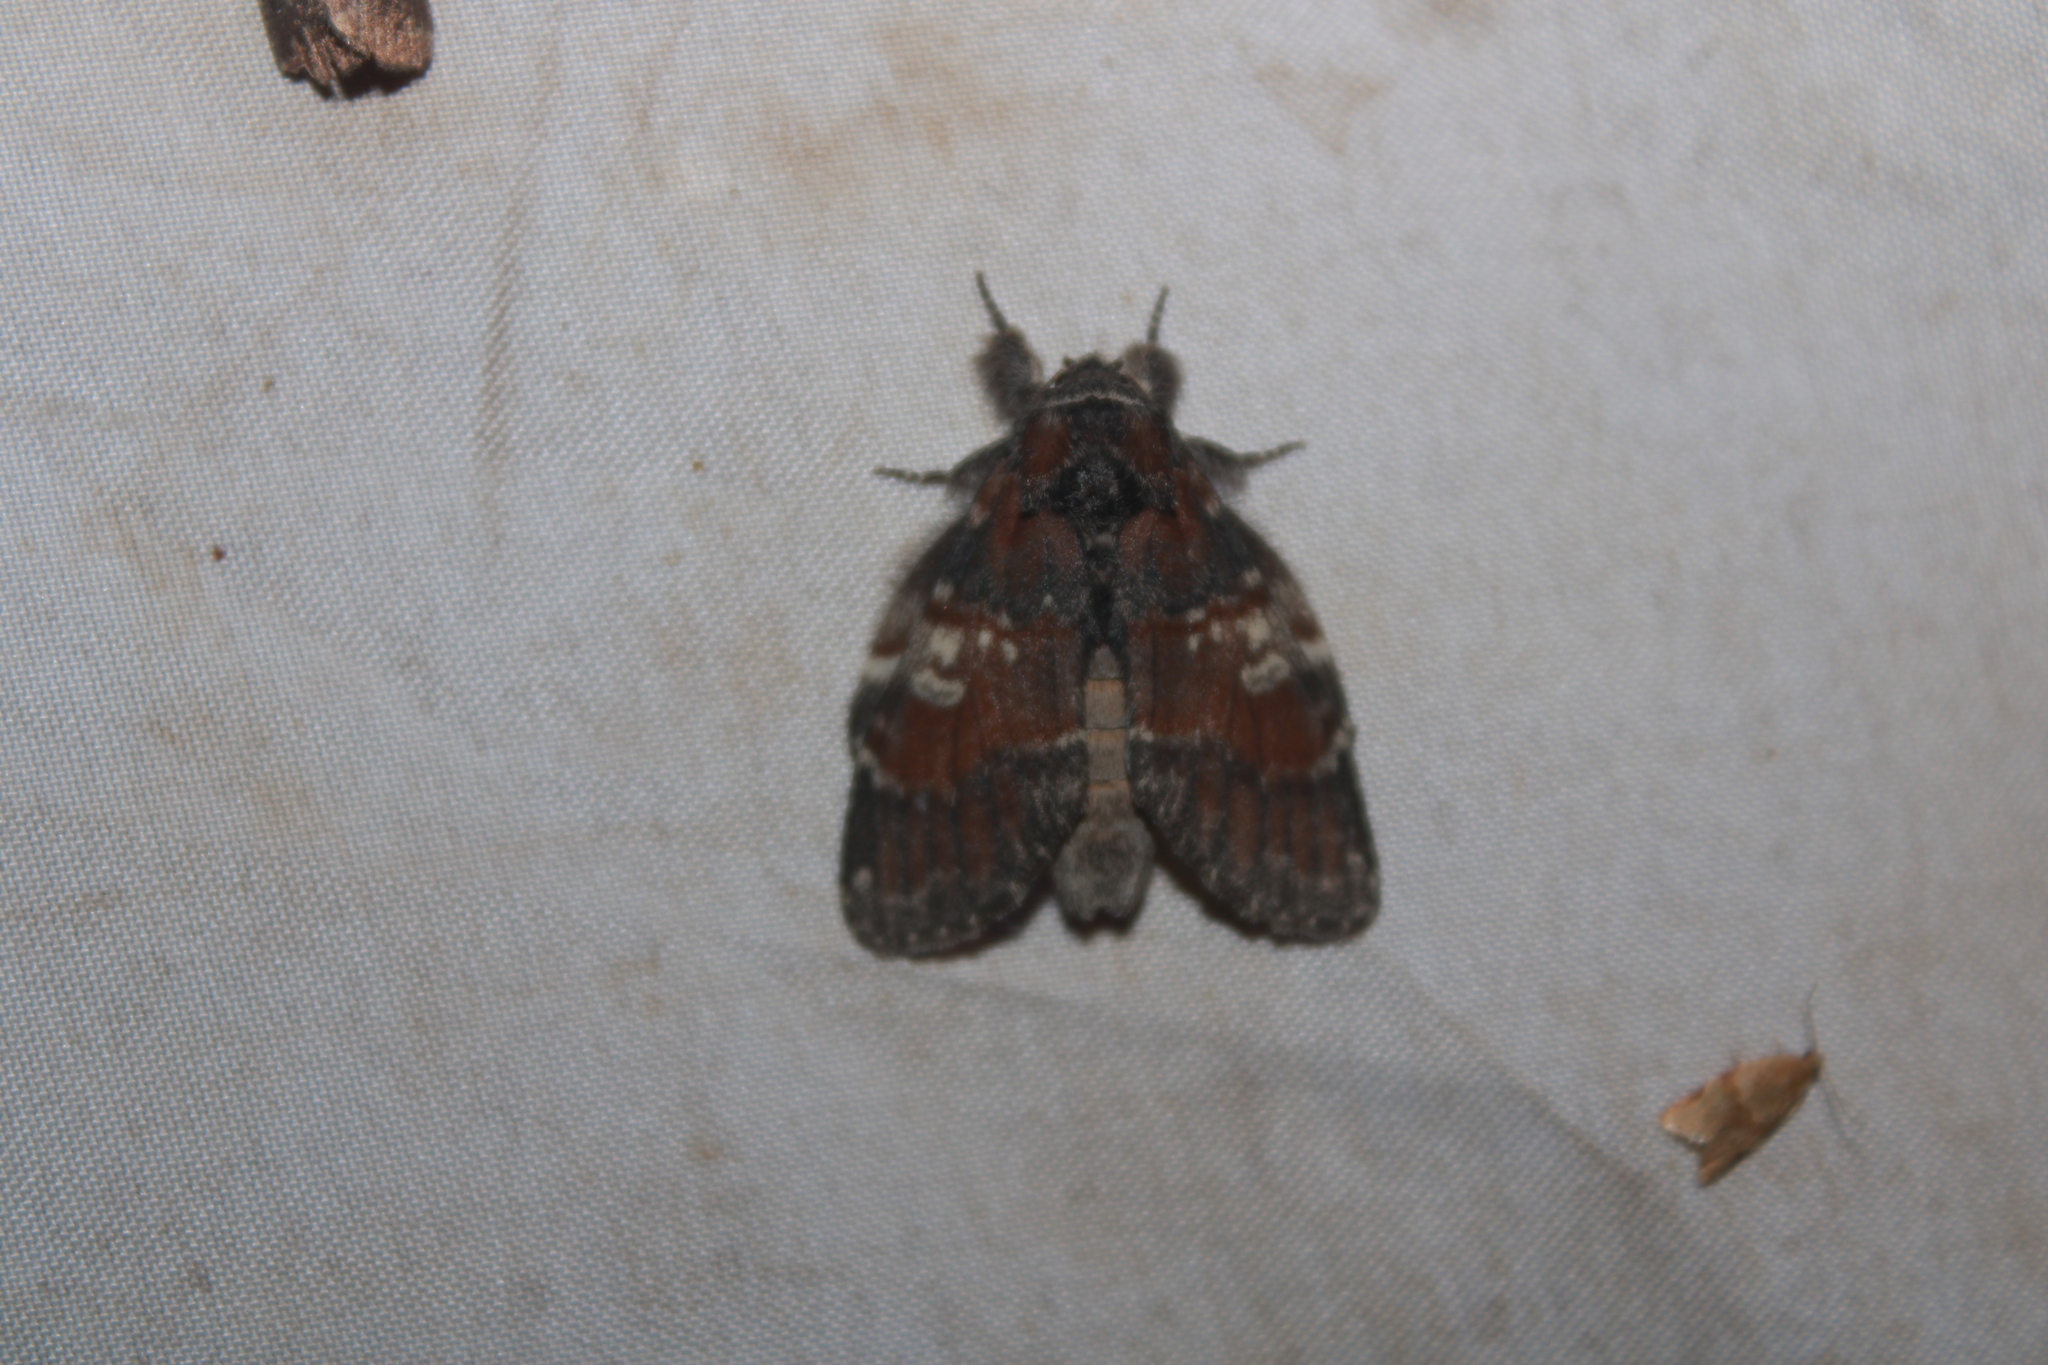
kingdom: Animalia
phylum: Arthropoda
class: Insecta
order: Lepidoptera
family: Notodontidae
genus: Peridea
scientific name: Peridea ferruginea
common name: Chocolate prominent
